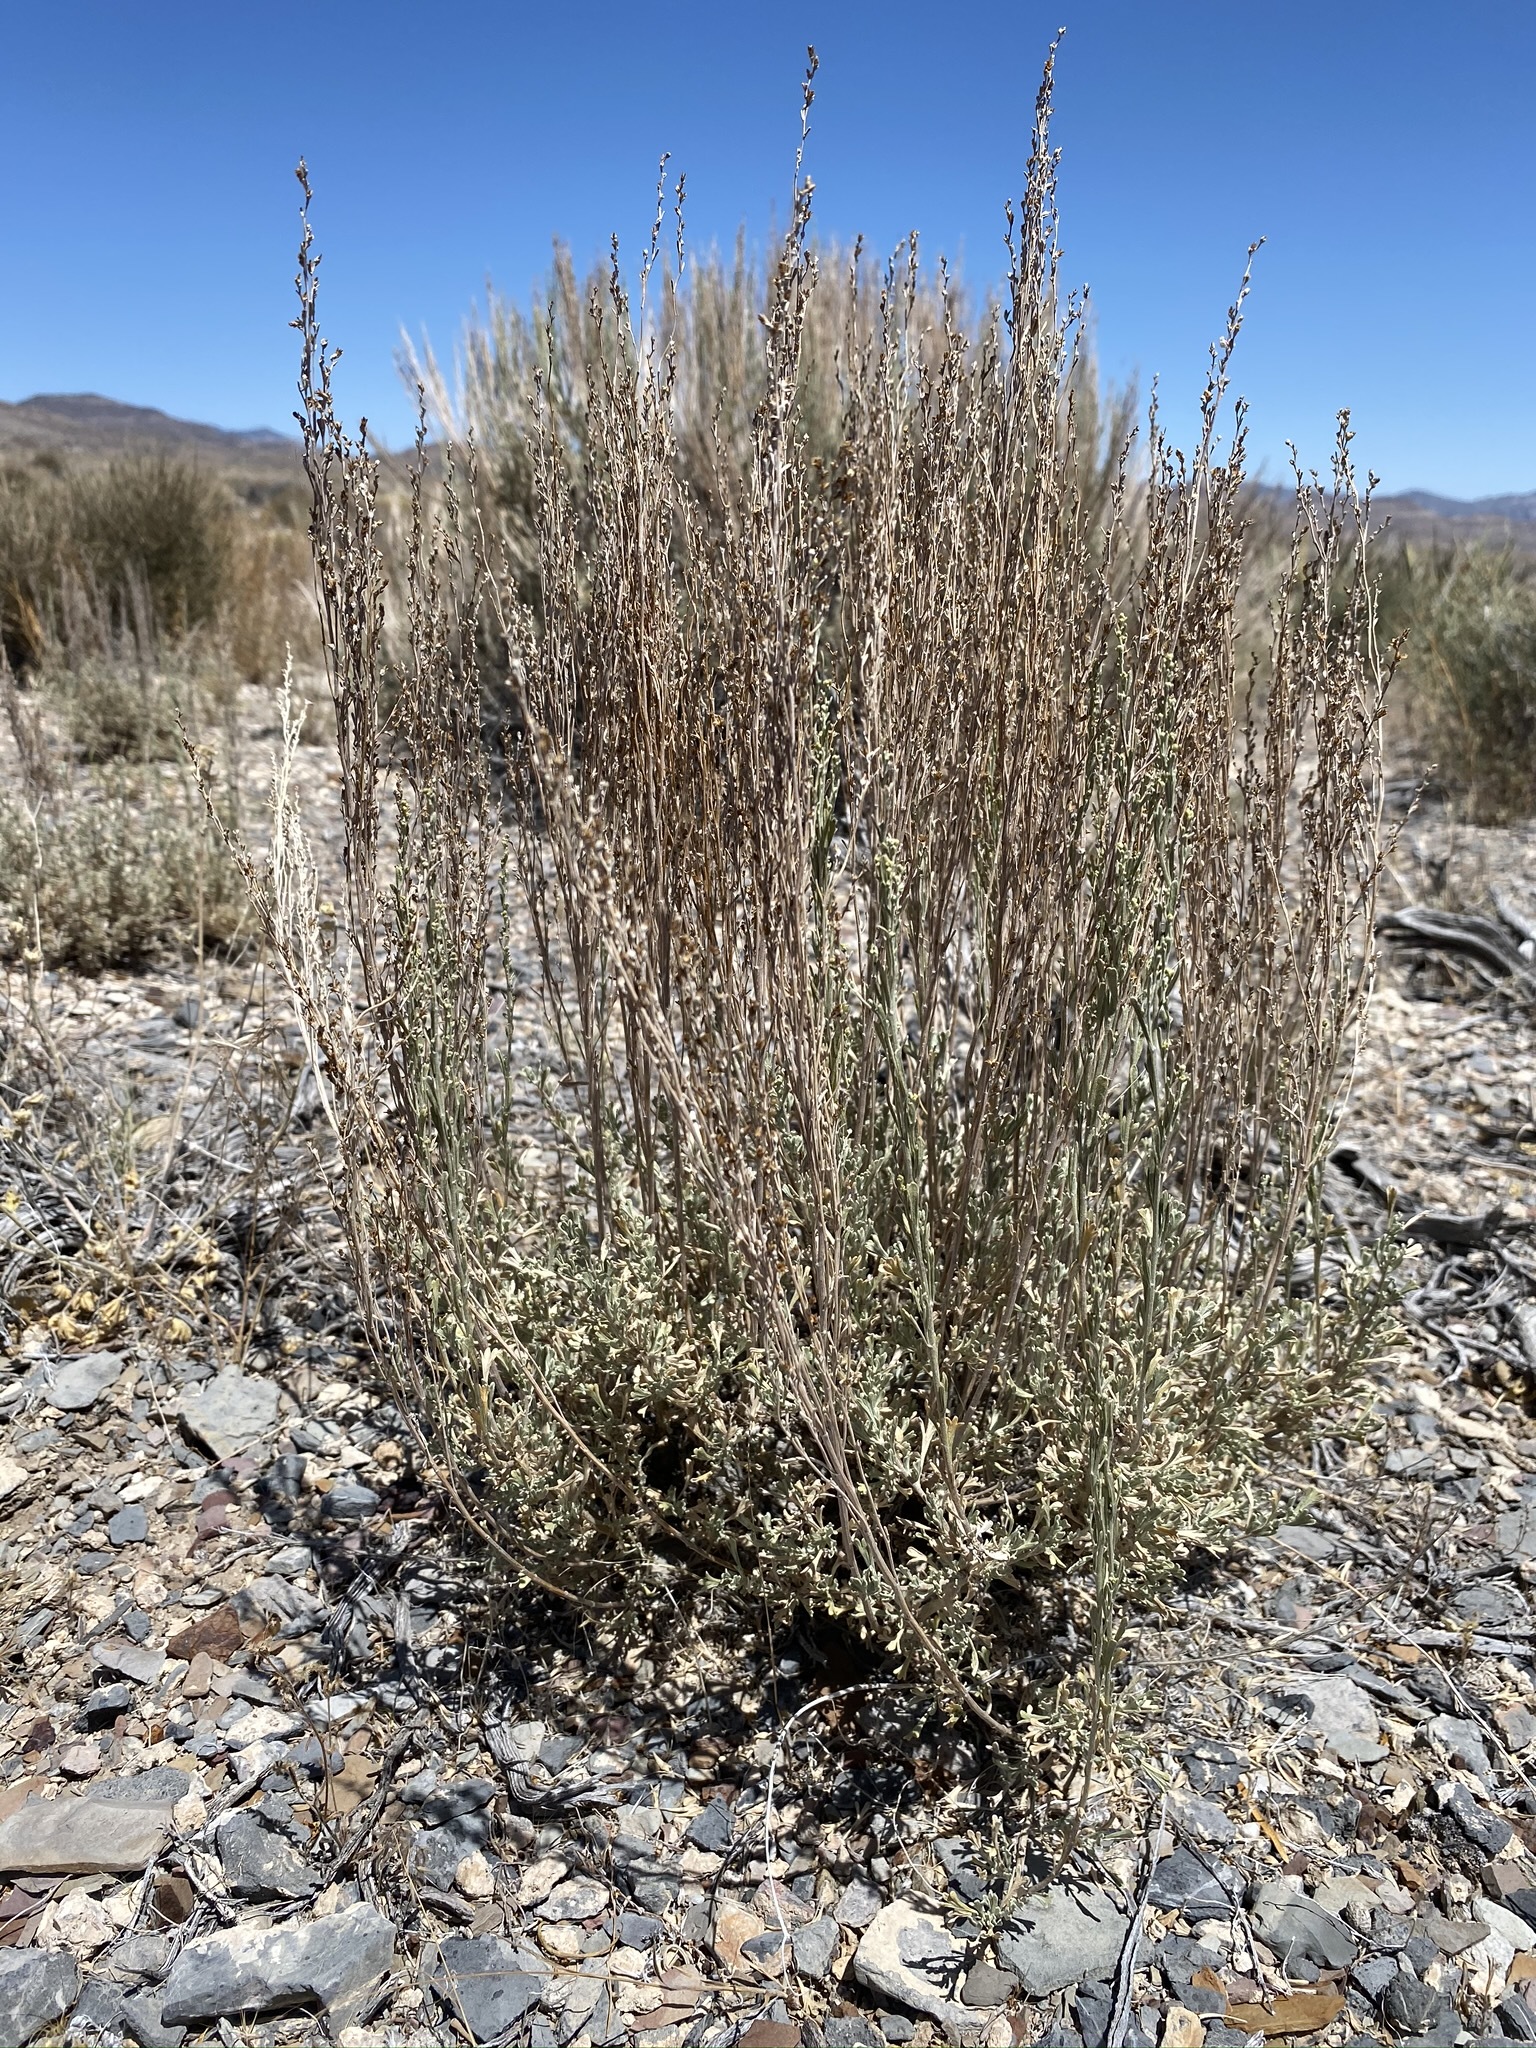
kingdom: Plantae
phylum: Tracheophyta
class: Magnoliopsida
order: Asterales
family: Asteraceae
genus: Artemisia
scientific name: Artemisia nova
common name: Black-sage
